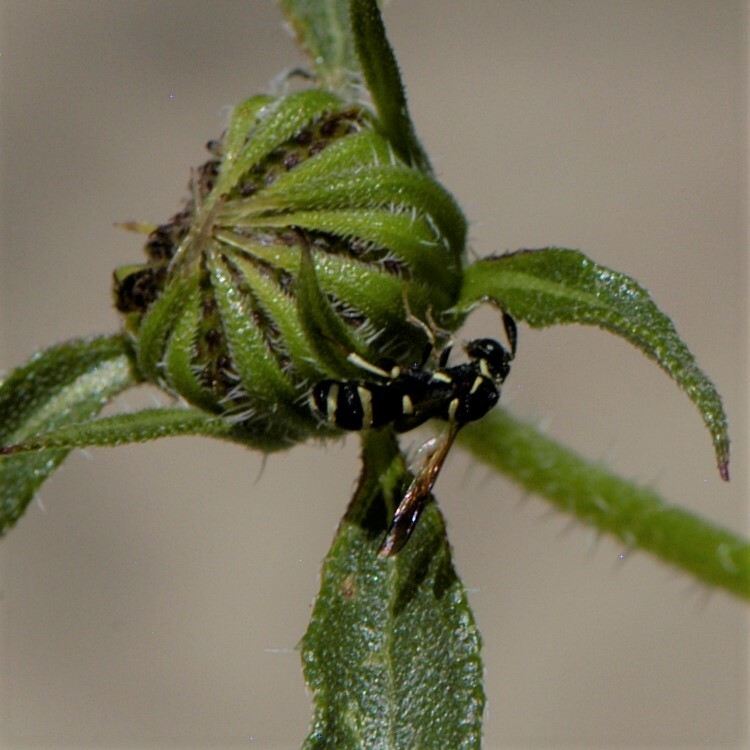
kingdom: Animalia
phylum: Arthropoda
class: Insecta
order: Hymenoptera
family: Leucospidae
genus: Leucospis
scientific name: Leucospis affinis
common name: Wasp
